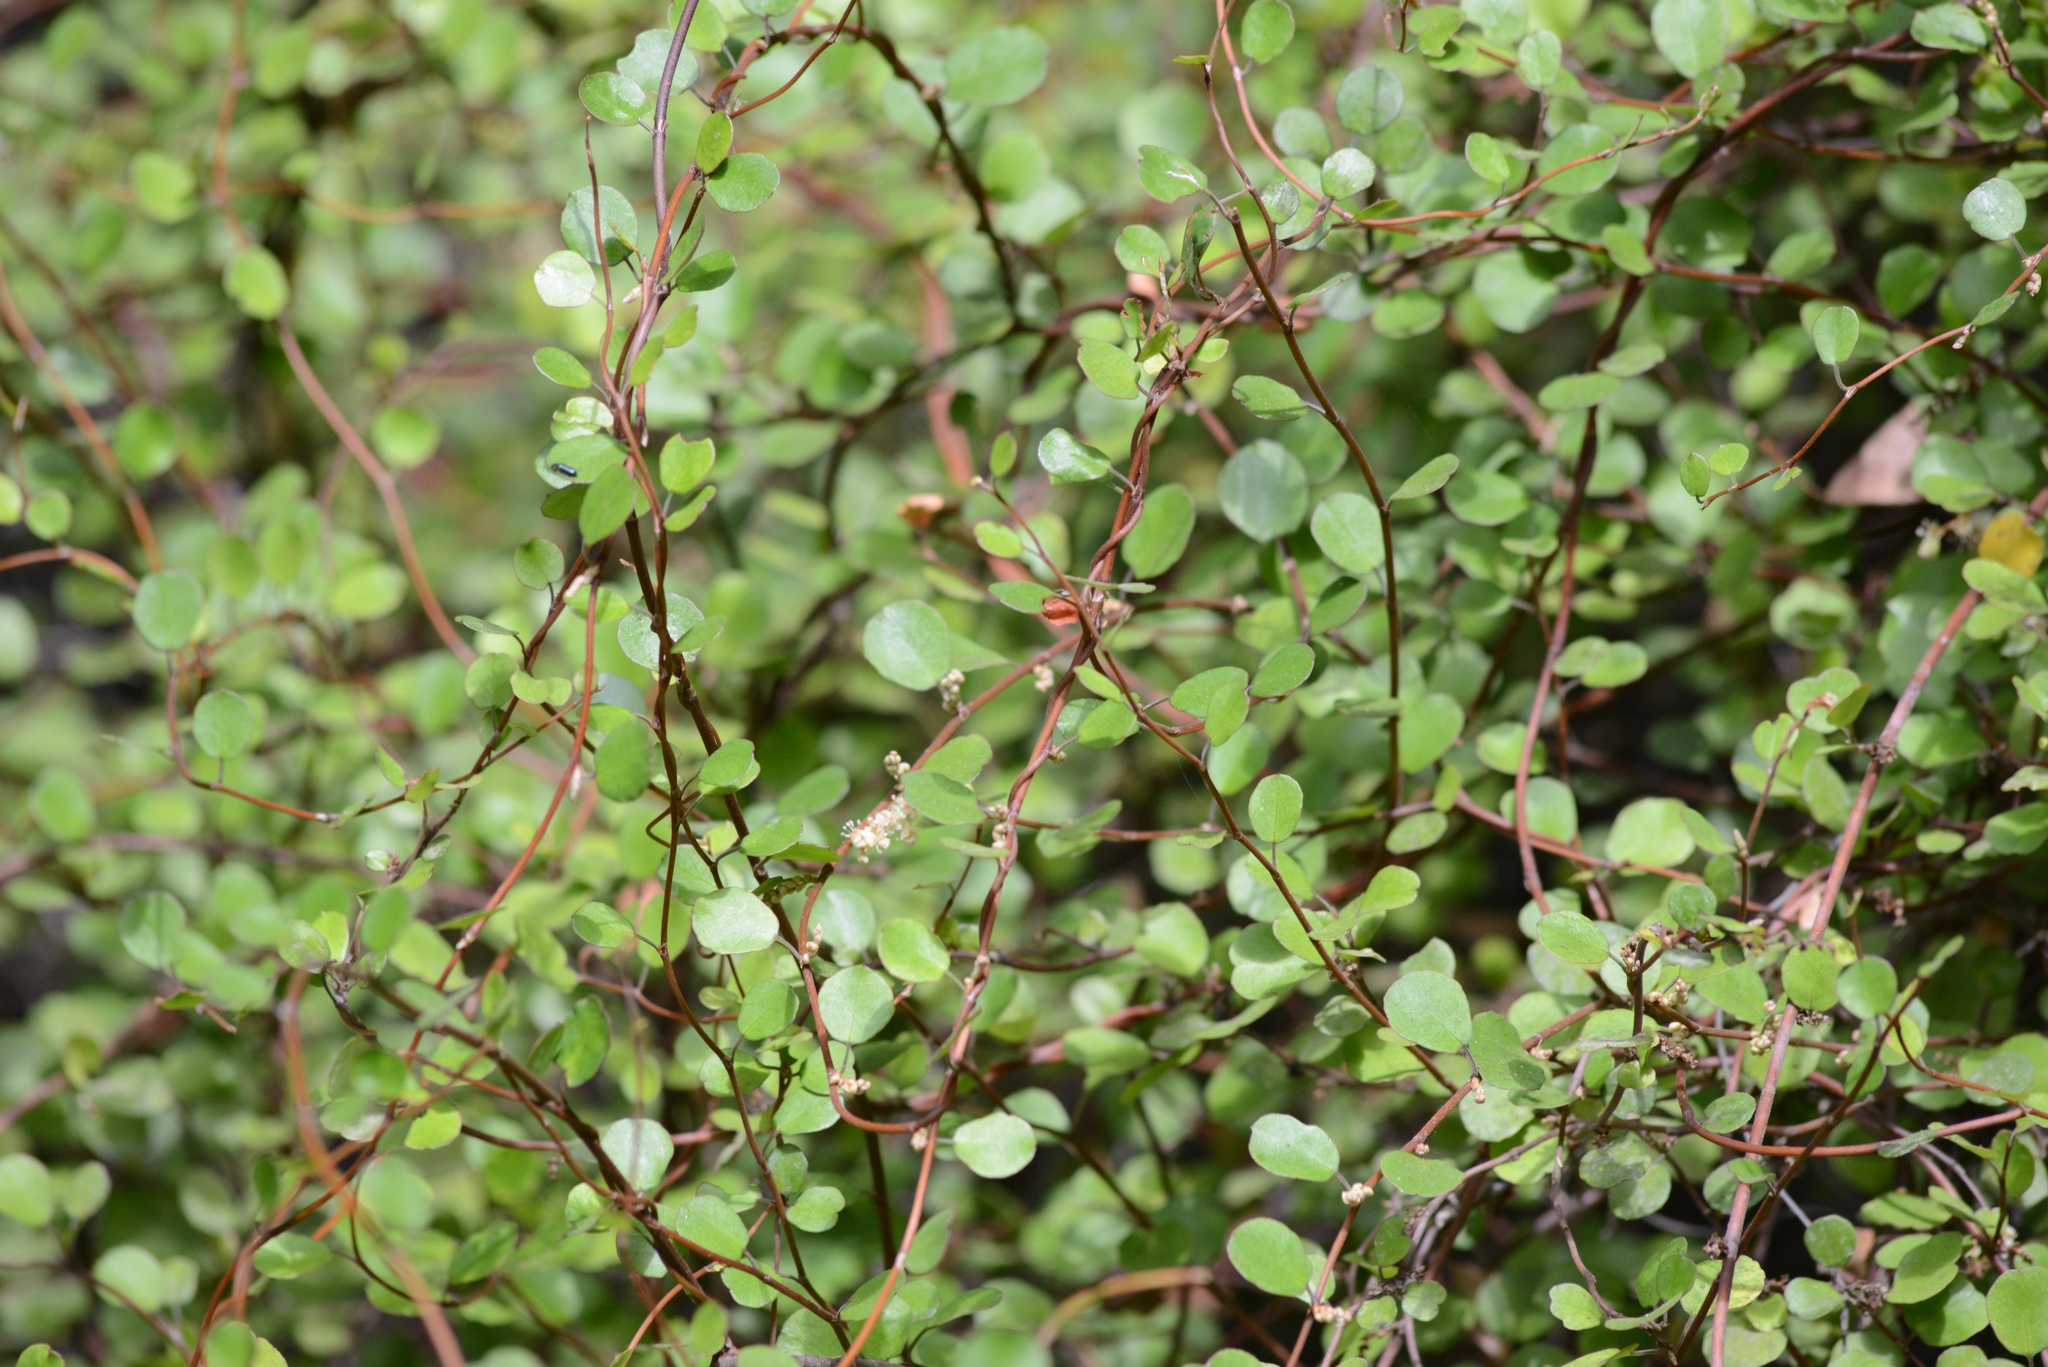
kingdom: Plantae
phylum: Tracheophyta
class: Magnoliopsida
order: Caryophyllales
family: Polygonaceae
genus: Muehlenbeckia
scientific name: Muehlenbeckia complexa
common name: Wireplant
